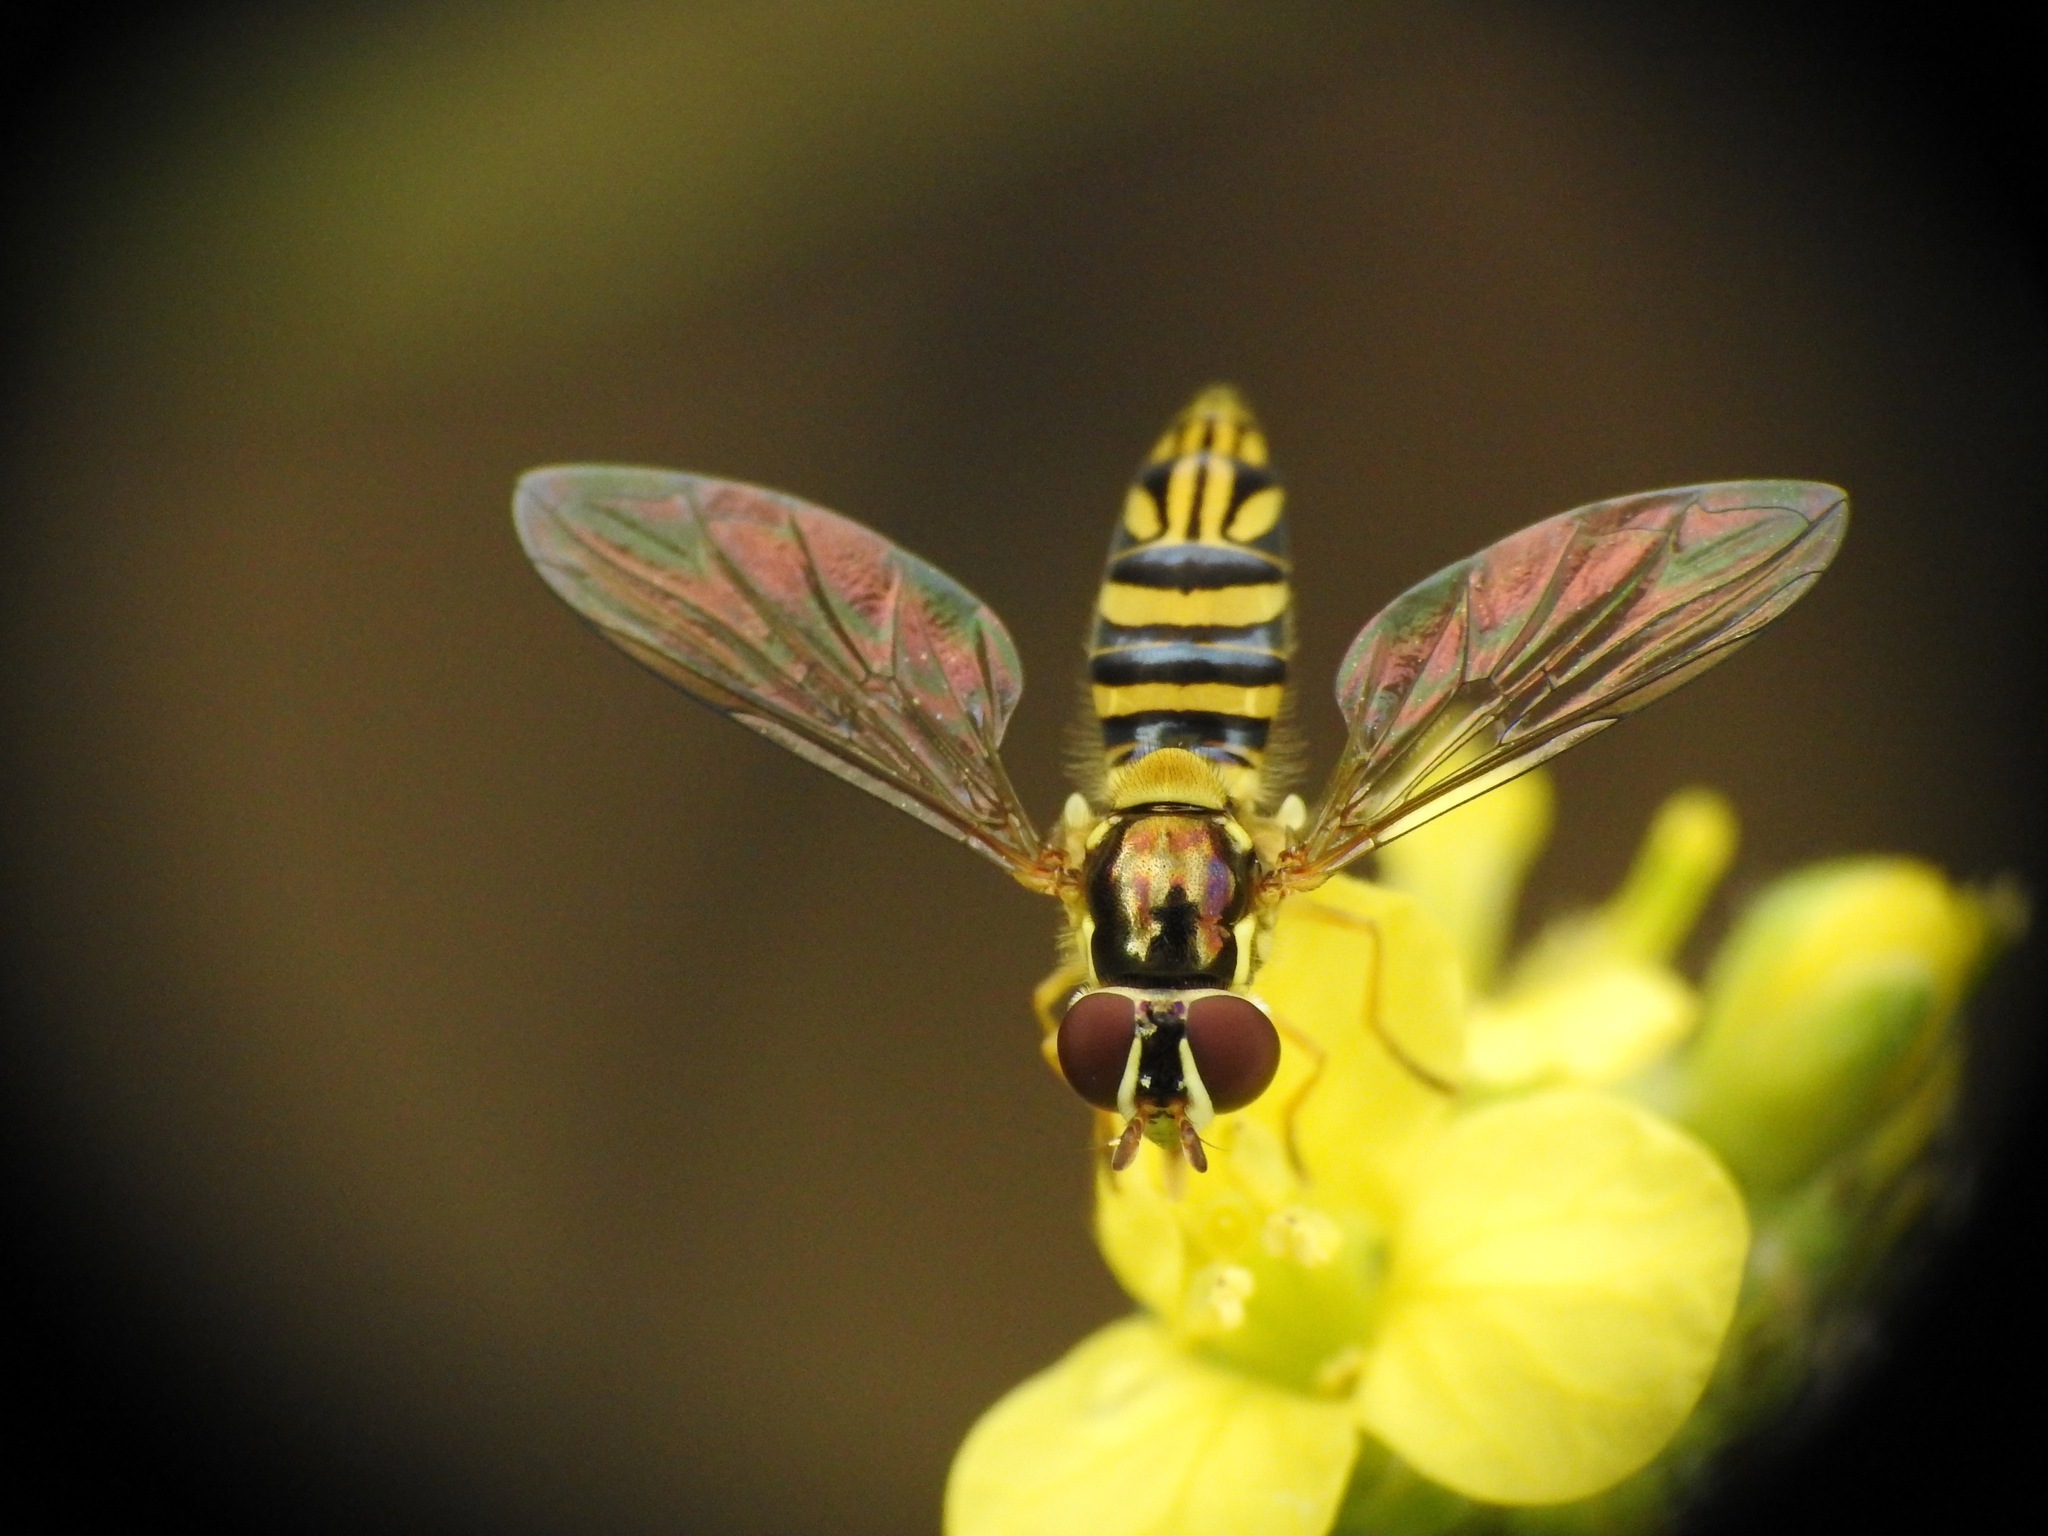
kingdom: Animalia
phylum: Arthropoda
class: Insecta
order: Diptera
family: Syrphidae
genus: Allograpta
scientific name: Allograpta obliqua
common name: Common oblique syrphid
